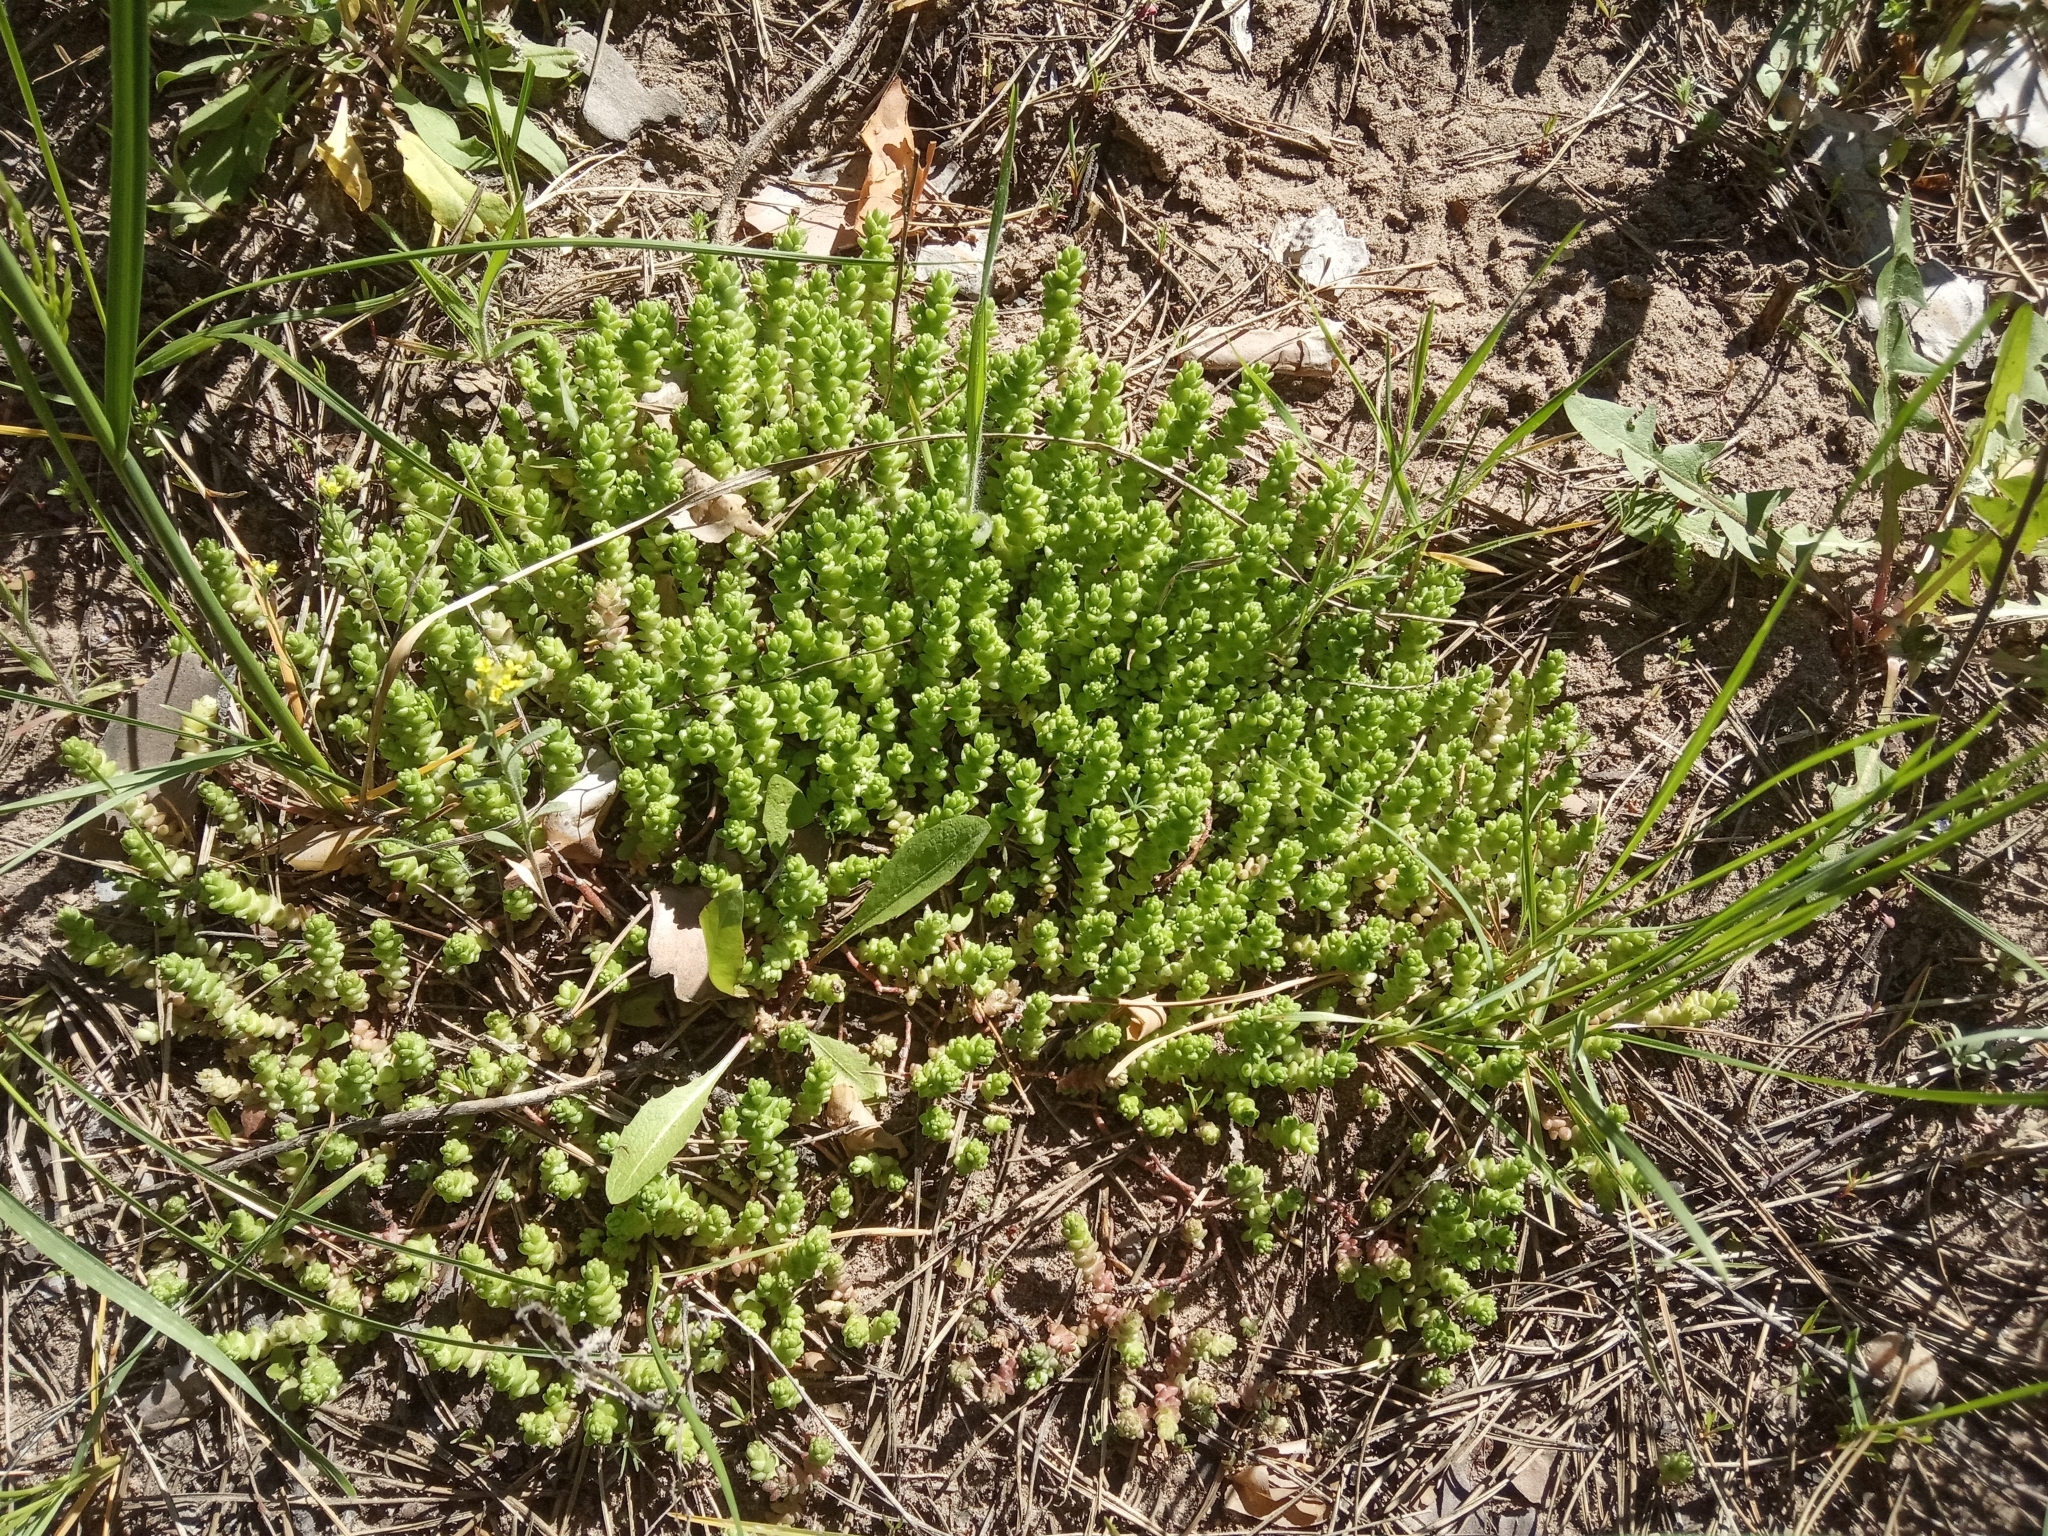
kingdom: Plantae
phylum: Tracheophyta
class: Magnoliopsida
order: Saxifragales
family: Crassulaceae
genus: Sedum
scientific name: Sedum acre
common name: Biting stonecrop
